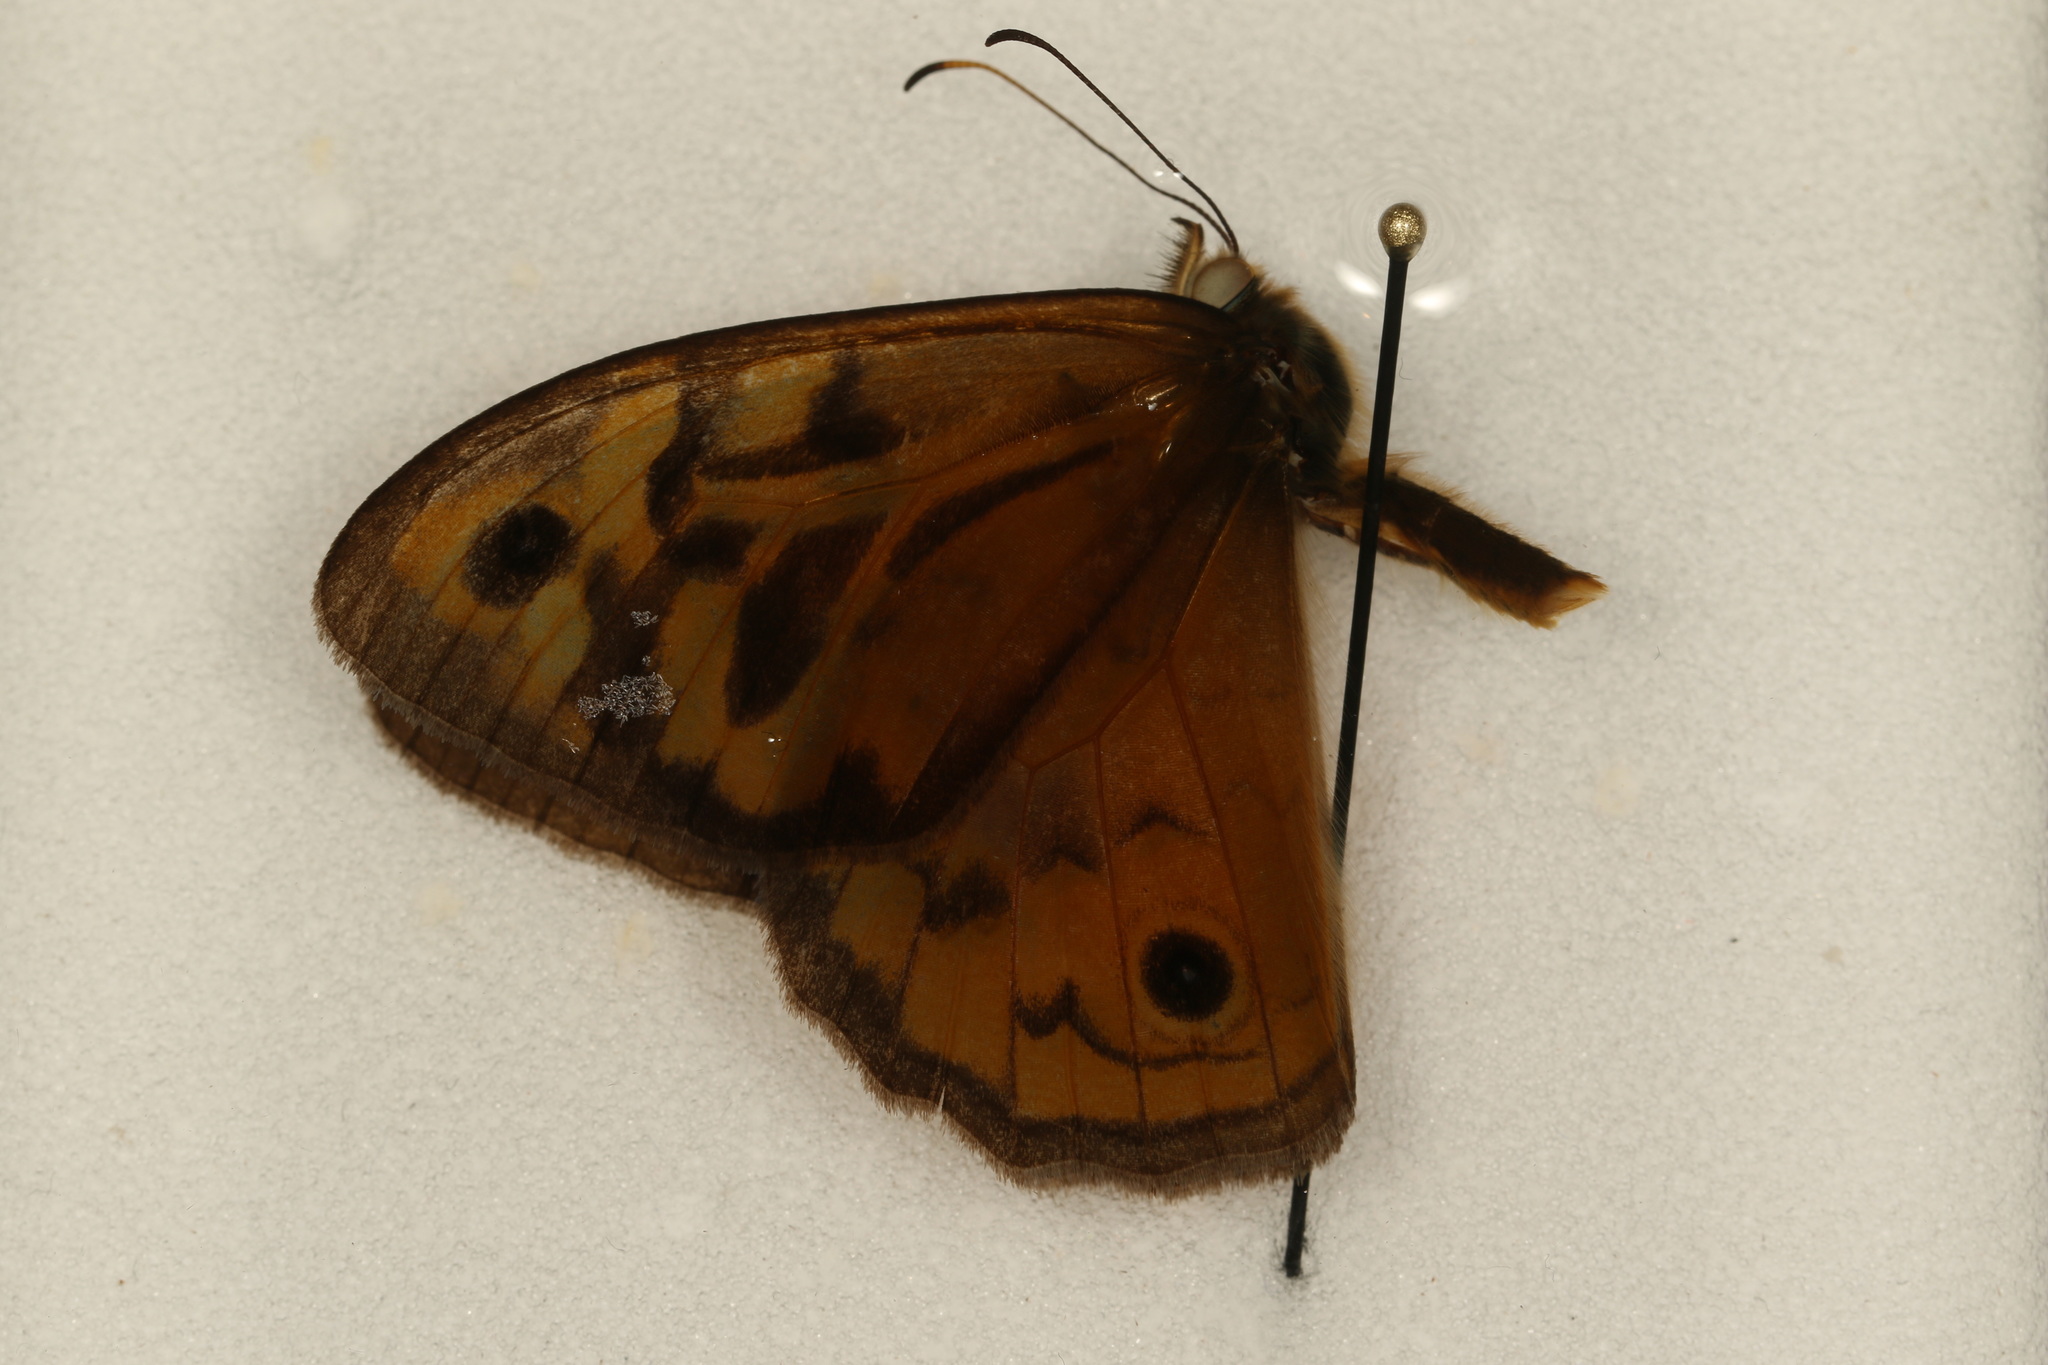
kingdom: Animalia
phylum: Arthropoda
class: Insecta
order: Lepidoptera
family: Nymphalidae
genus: Heteronympha
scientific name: Heteronympha merope
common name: Common brown
